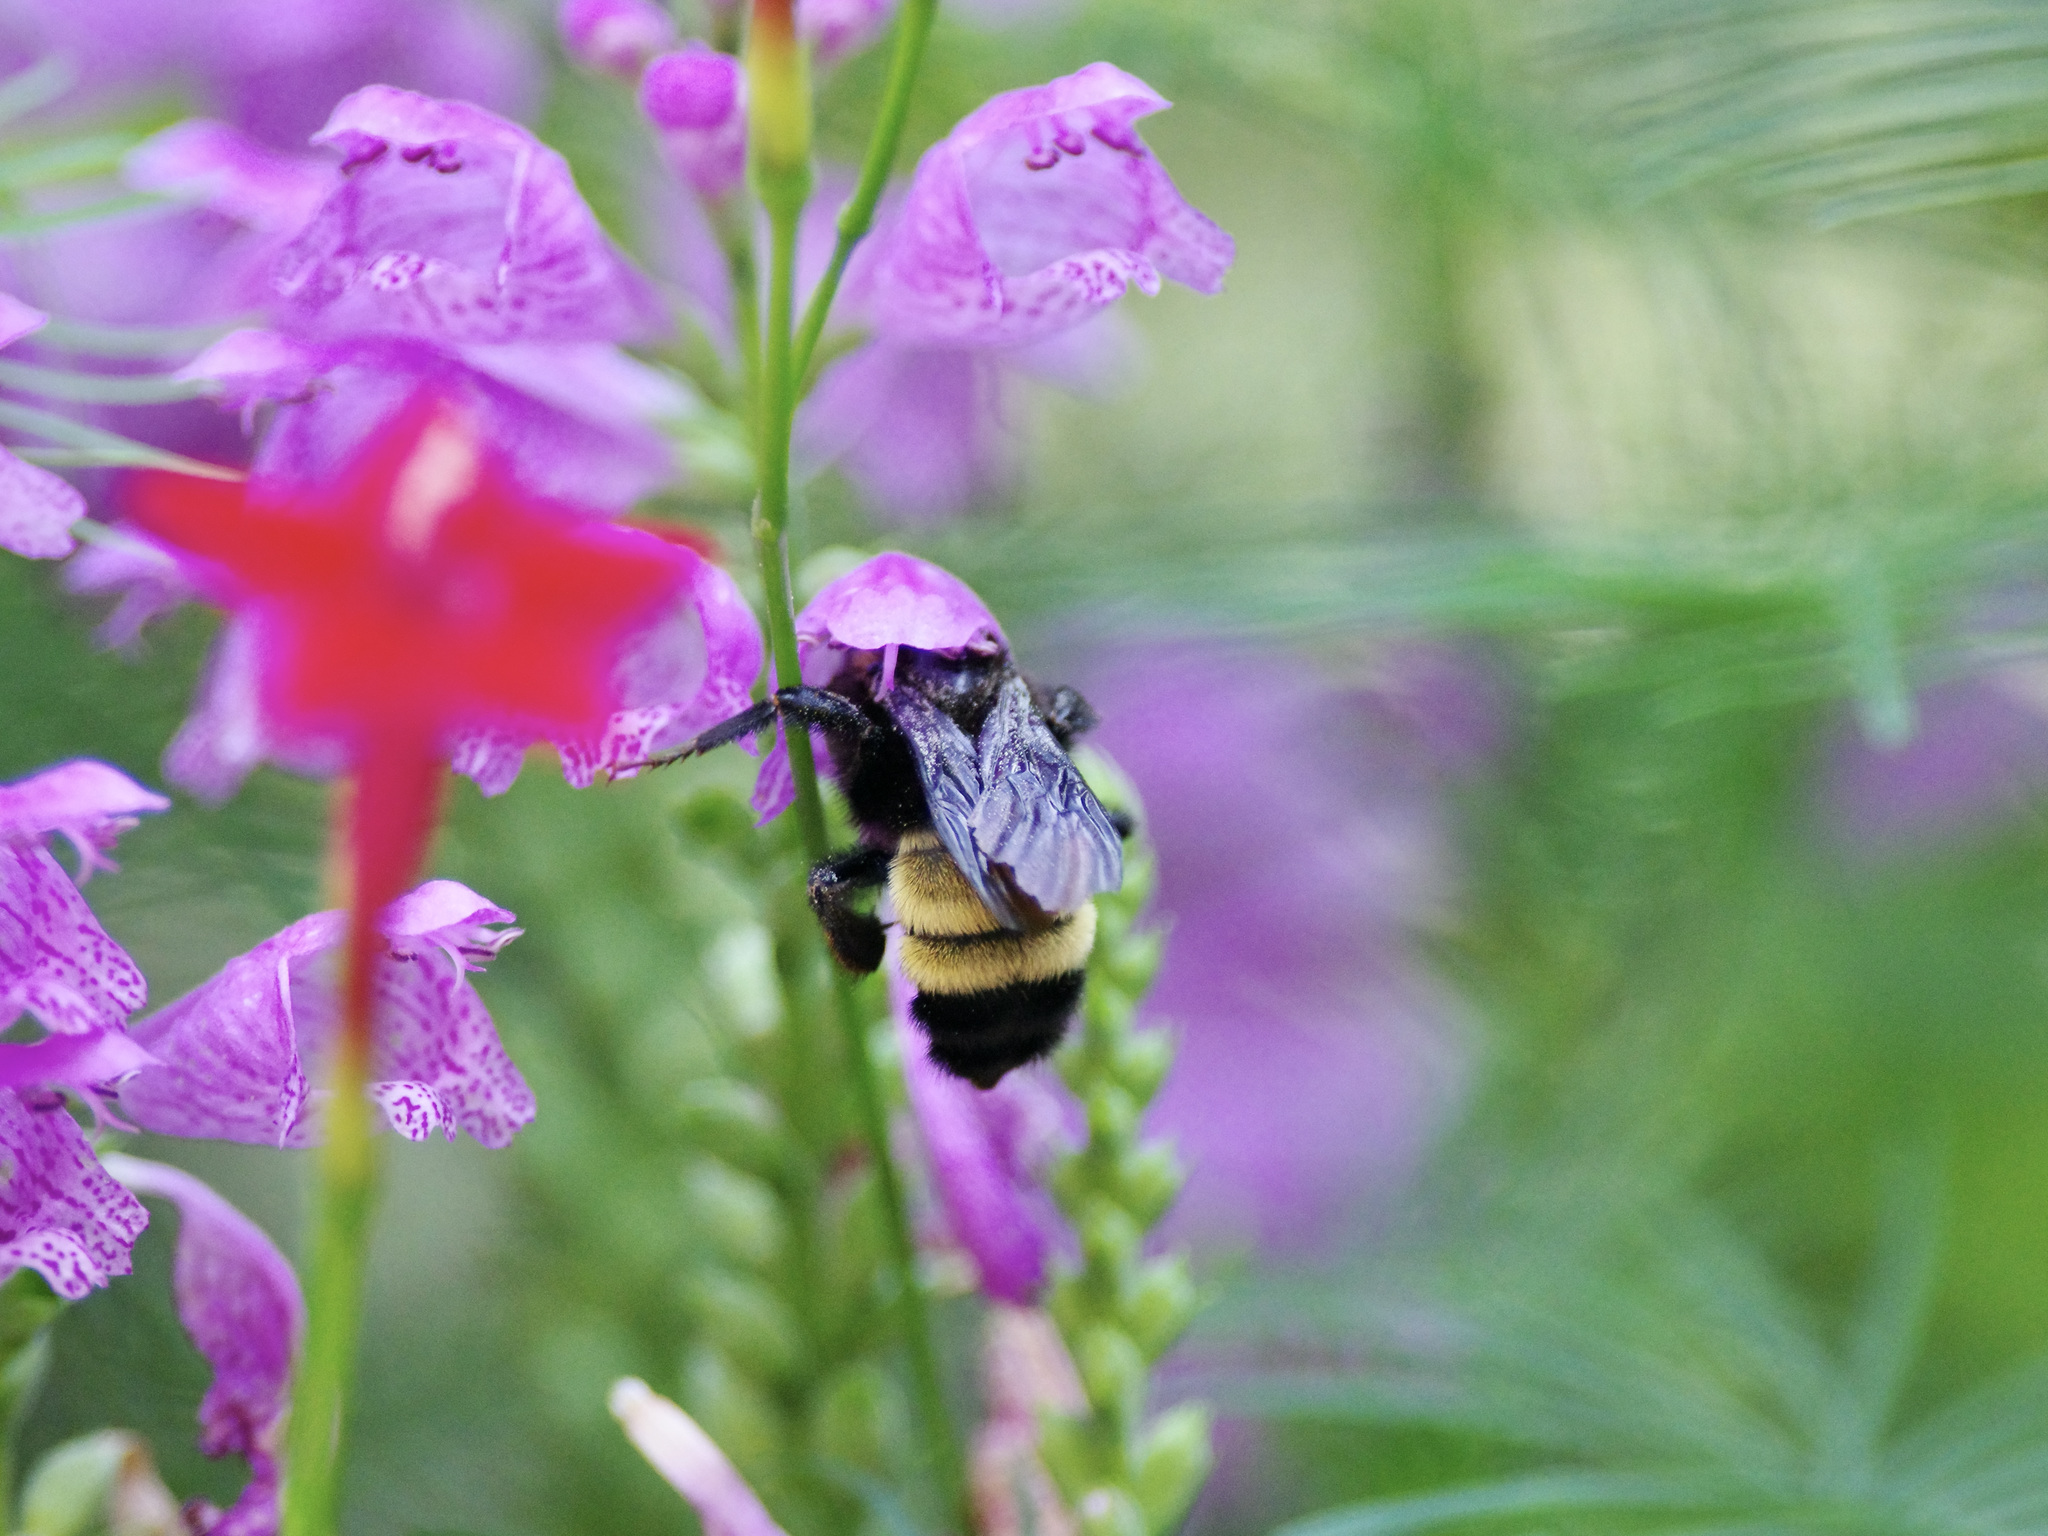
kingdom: Animalia
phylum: Arthropoda
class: Insecta
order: Hymenoptera
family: Apidae
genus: Bombus
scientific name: Bombus pensylvanicus
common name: Bumble bee
